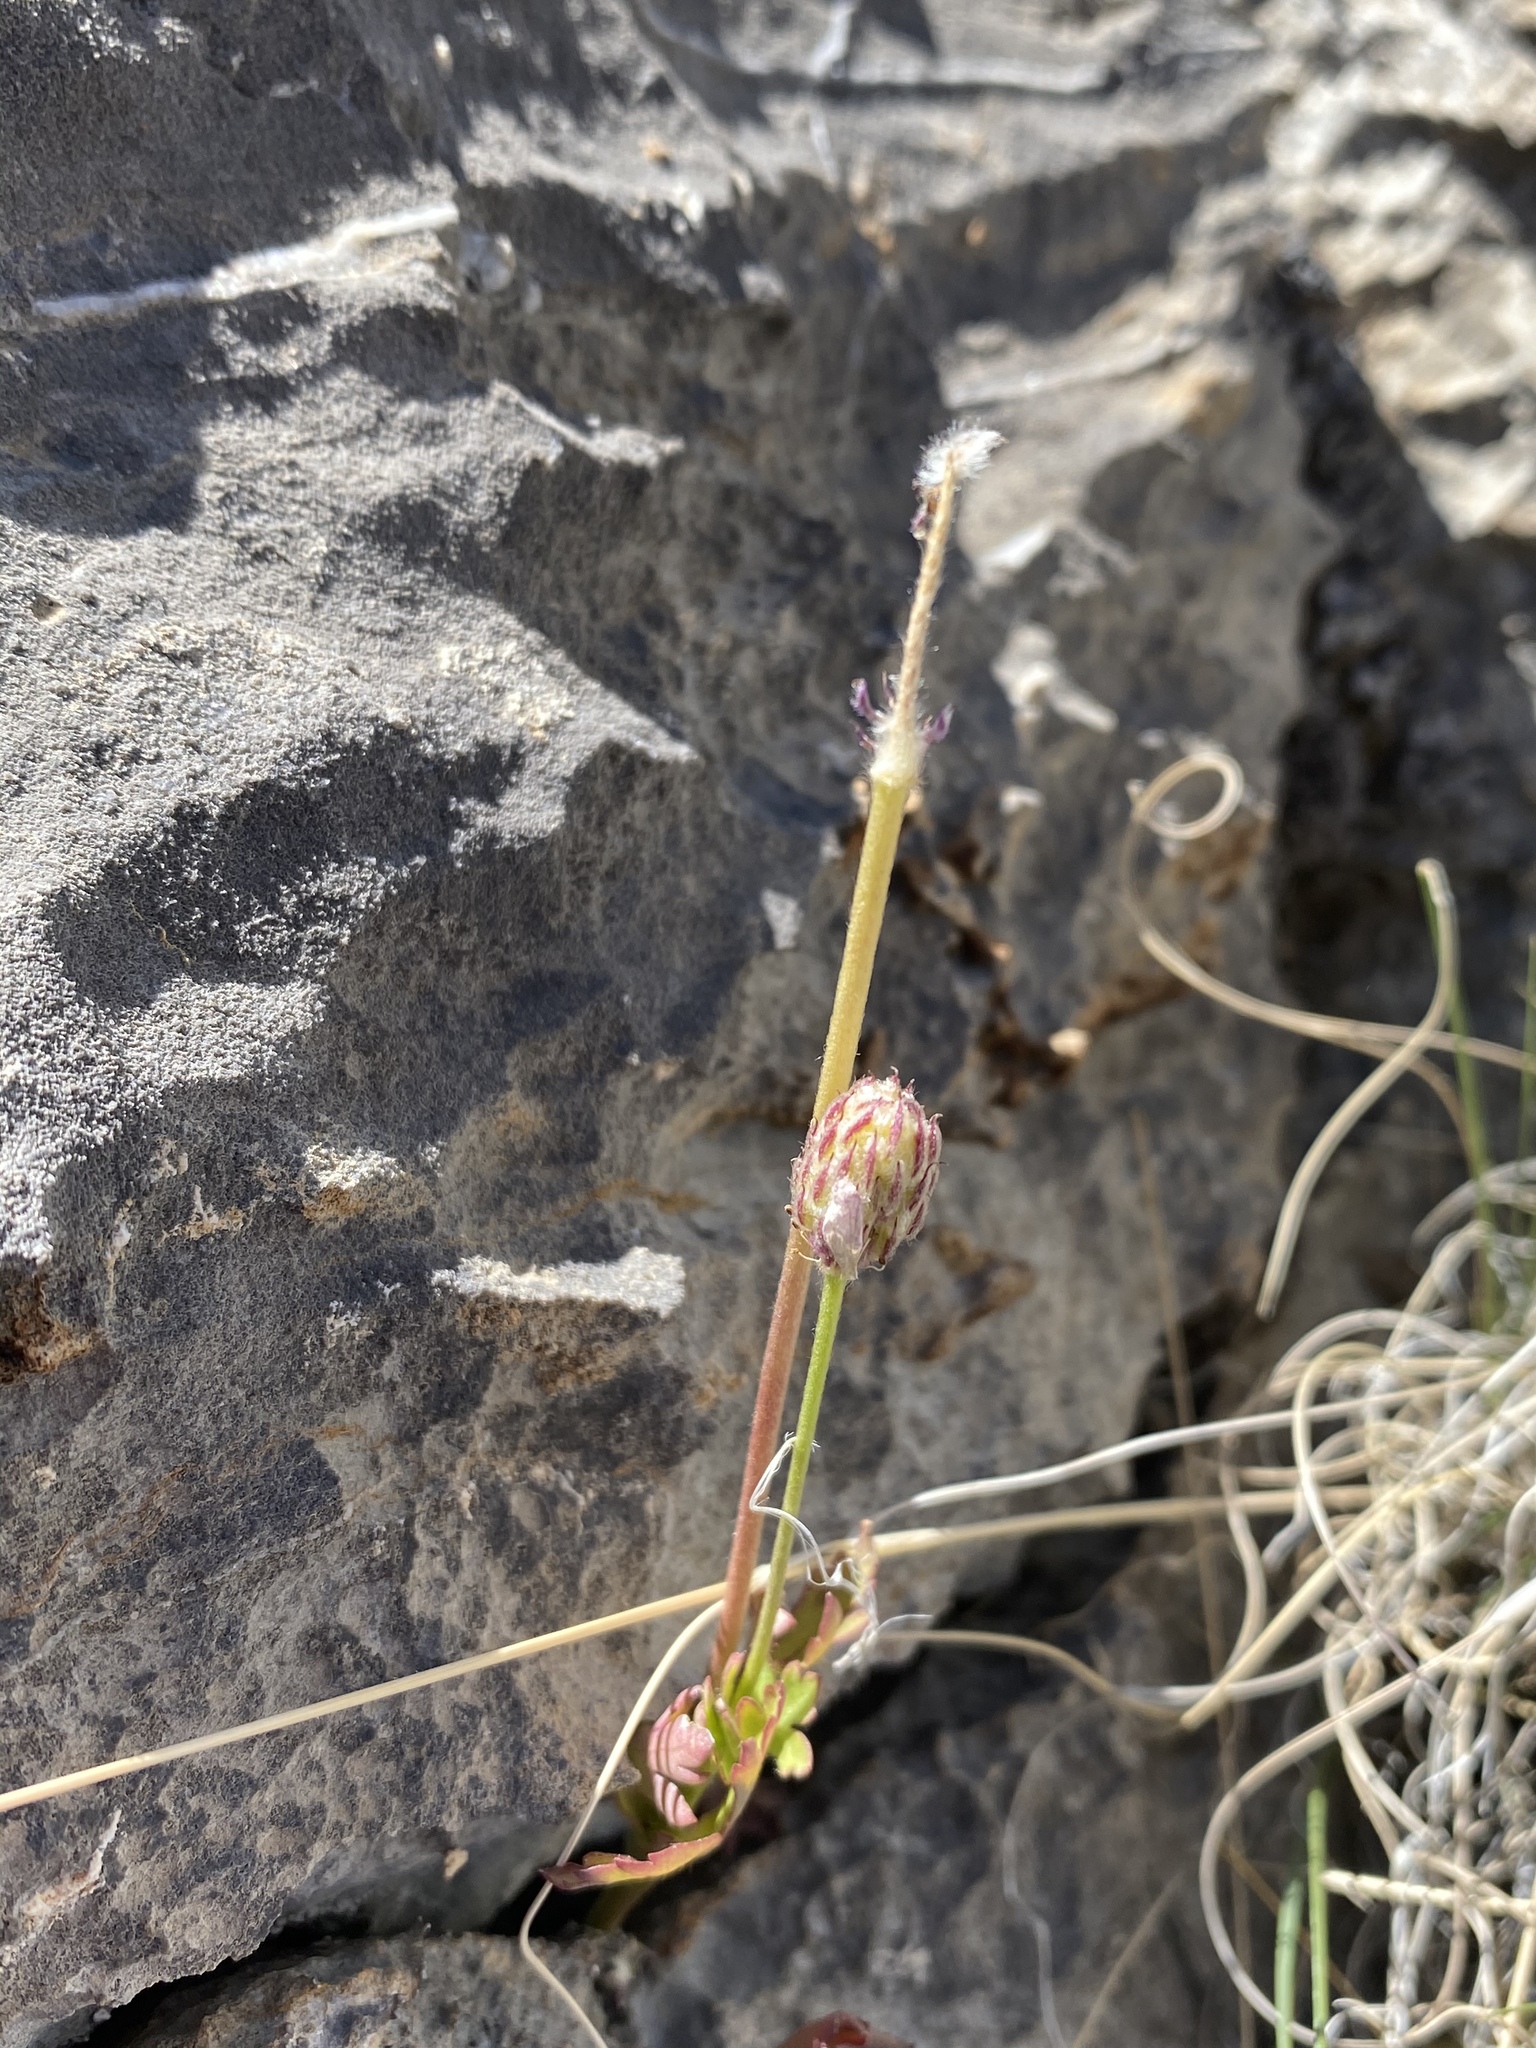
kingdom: Plantae
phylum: Tracheophyta
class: Magnoliopsida
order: Ranunculales
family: Ranunculaceae
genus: Anemone
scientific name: Anemone tuberosa
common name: Desert anemone
